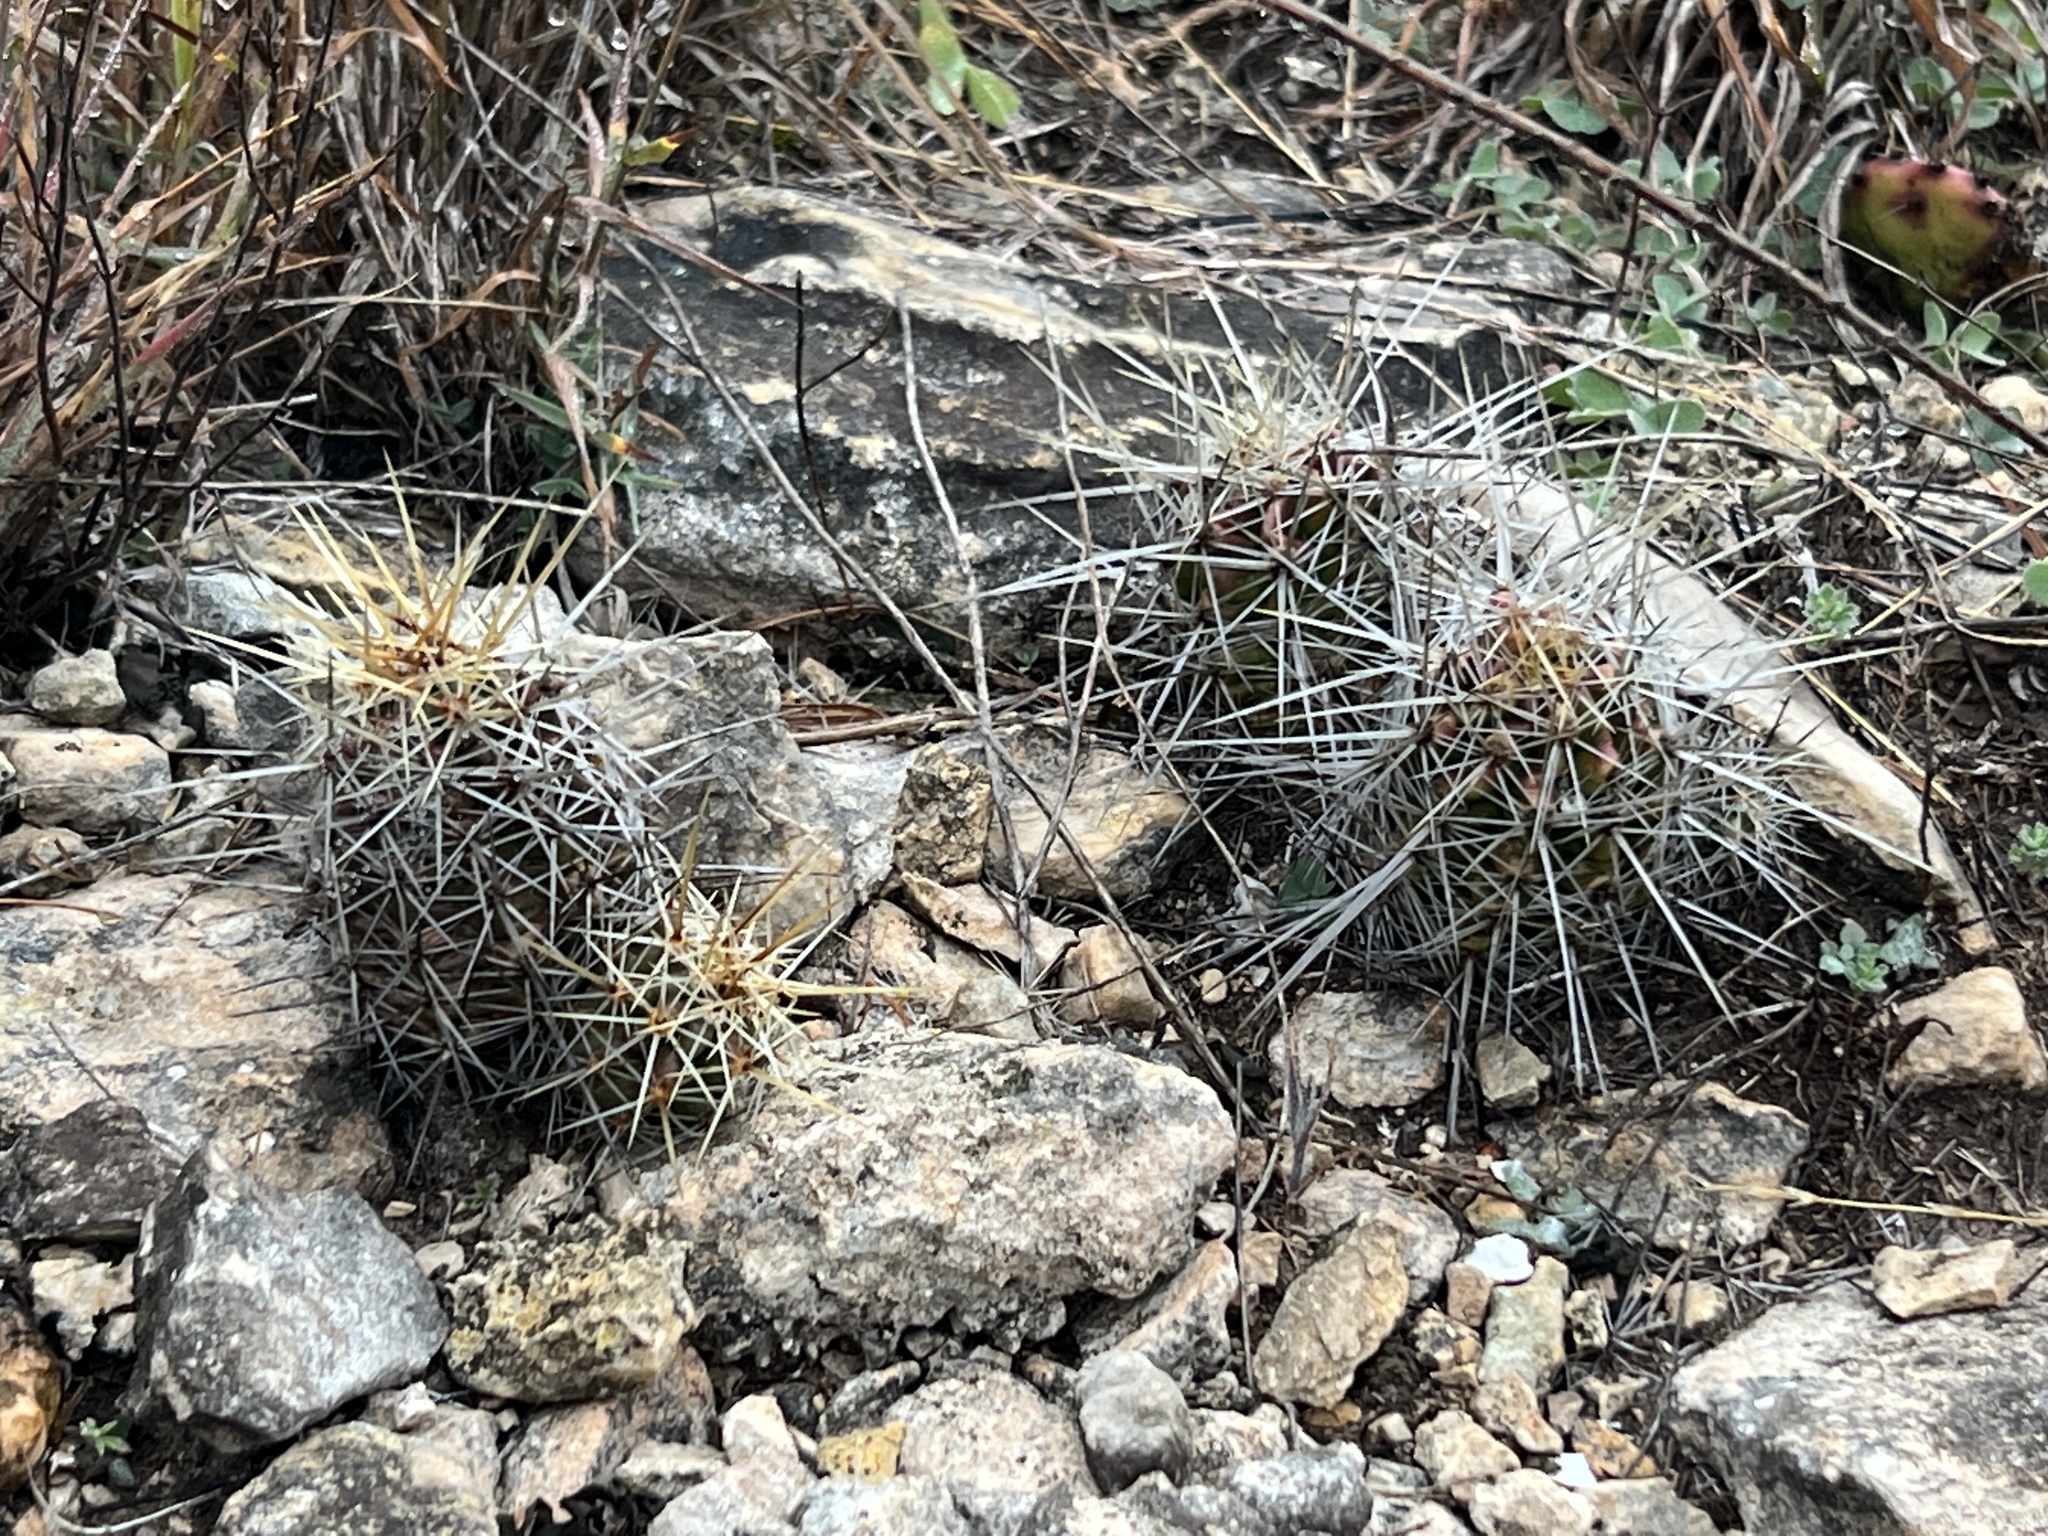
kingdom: Plantae
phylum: Tracheophyta
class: Magnoliopsida
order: Caryophyllales
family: Cactaceae
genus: Echinocereus
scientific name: Echinocereus enneacanthus
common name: Pitaya
